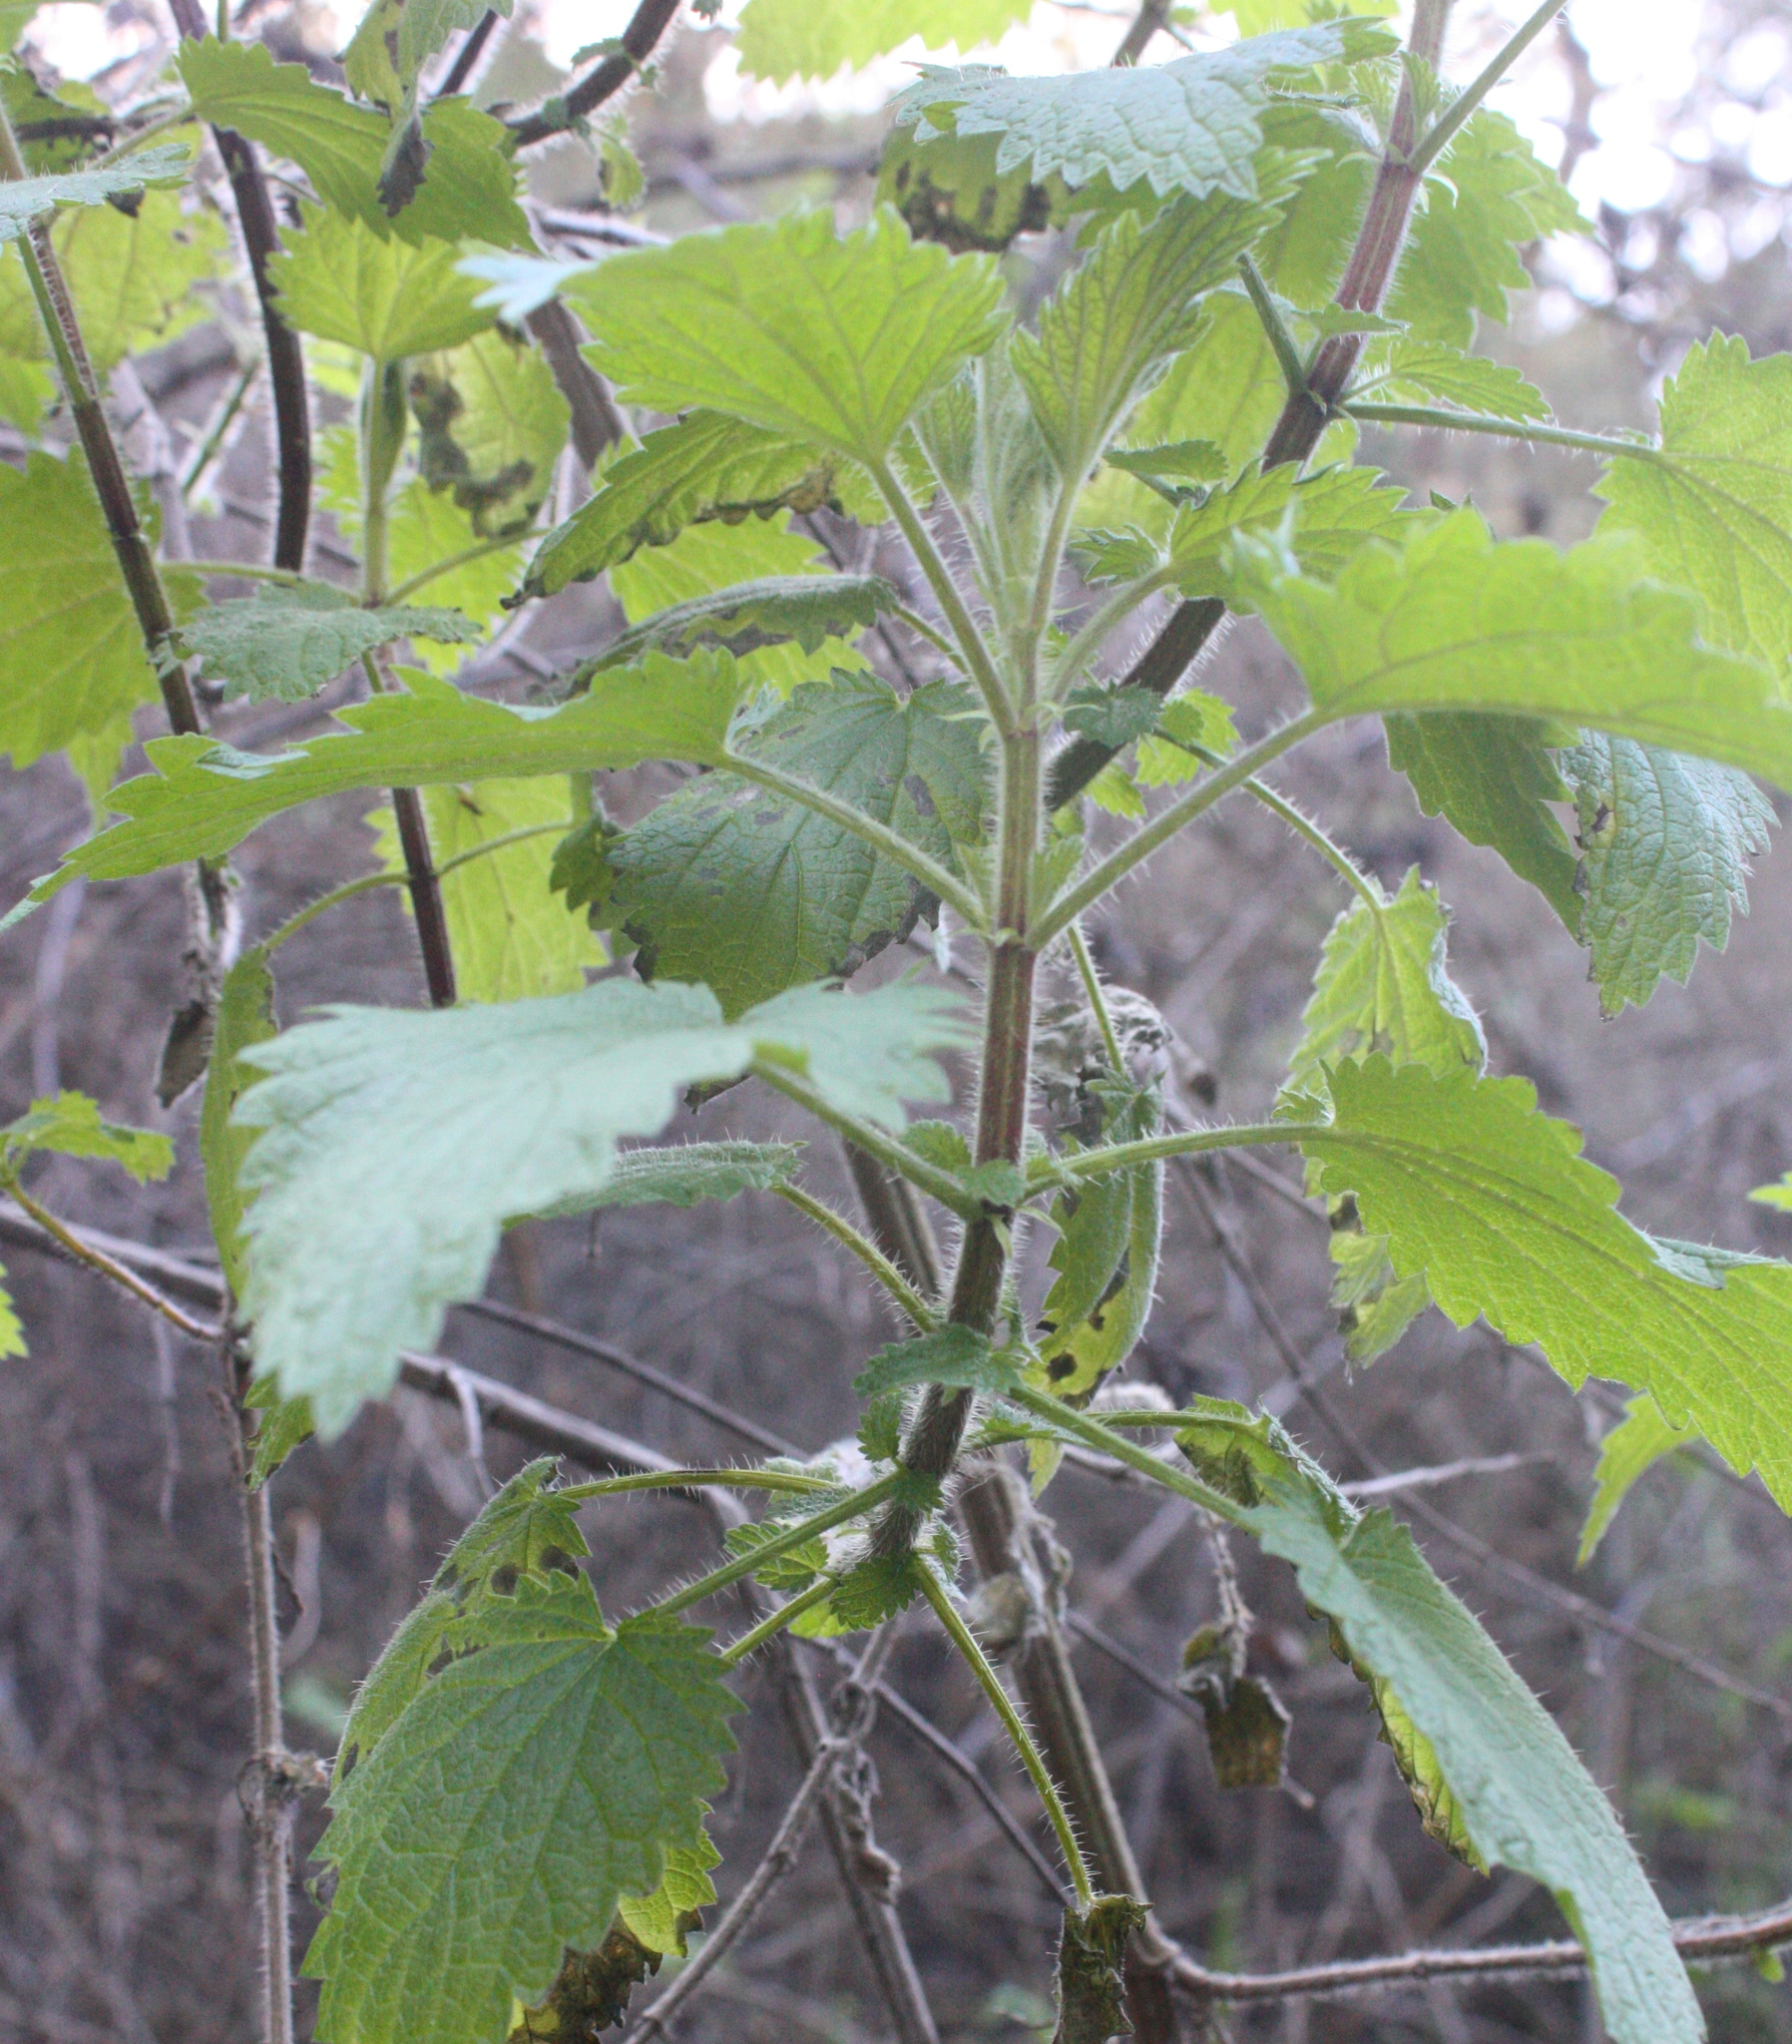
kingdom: Plantae
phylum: Tracheophyta
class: Magnoliopsida
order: Rosales
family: Urticaceae
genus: Urtica
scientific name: Urtica dioica
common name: Common nettle
